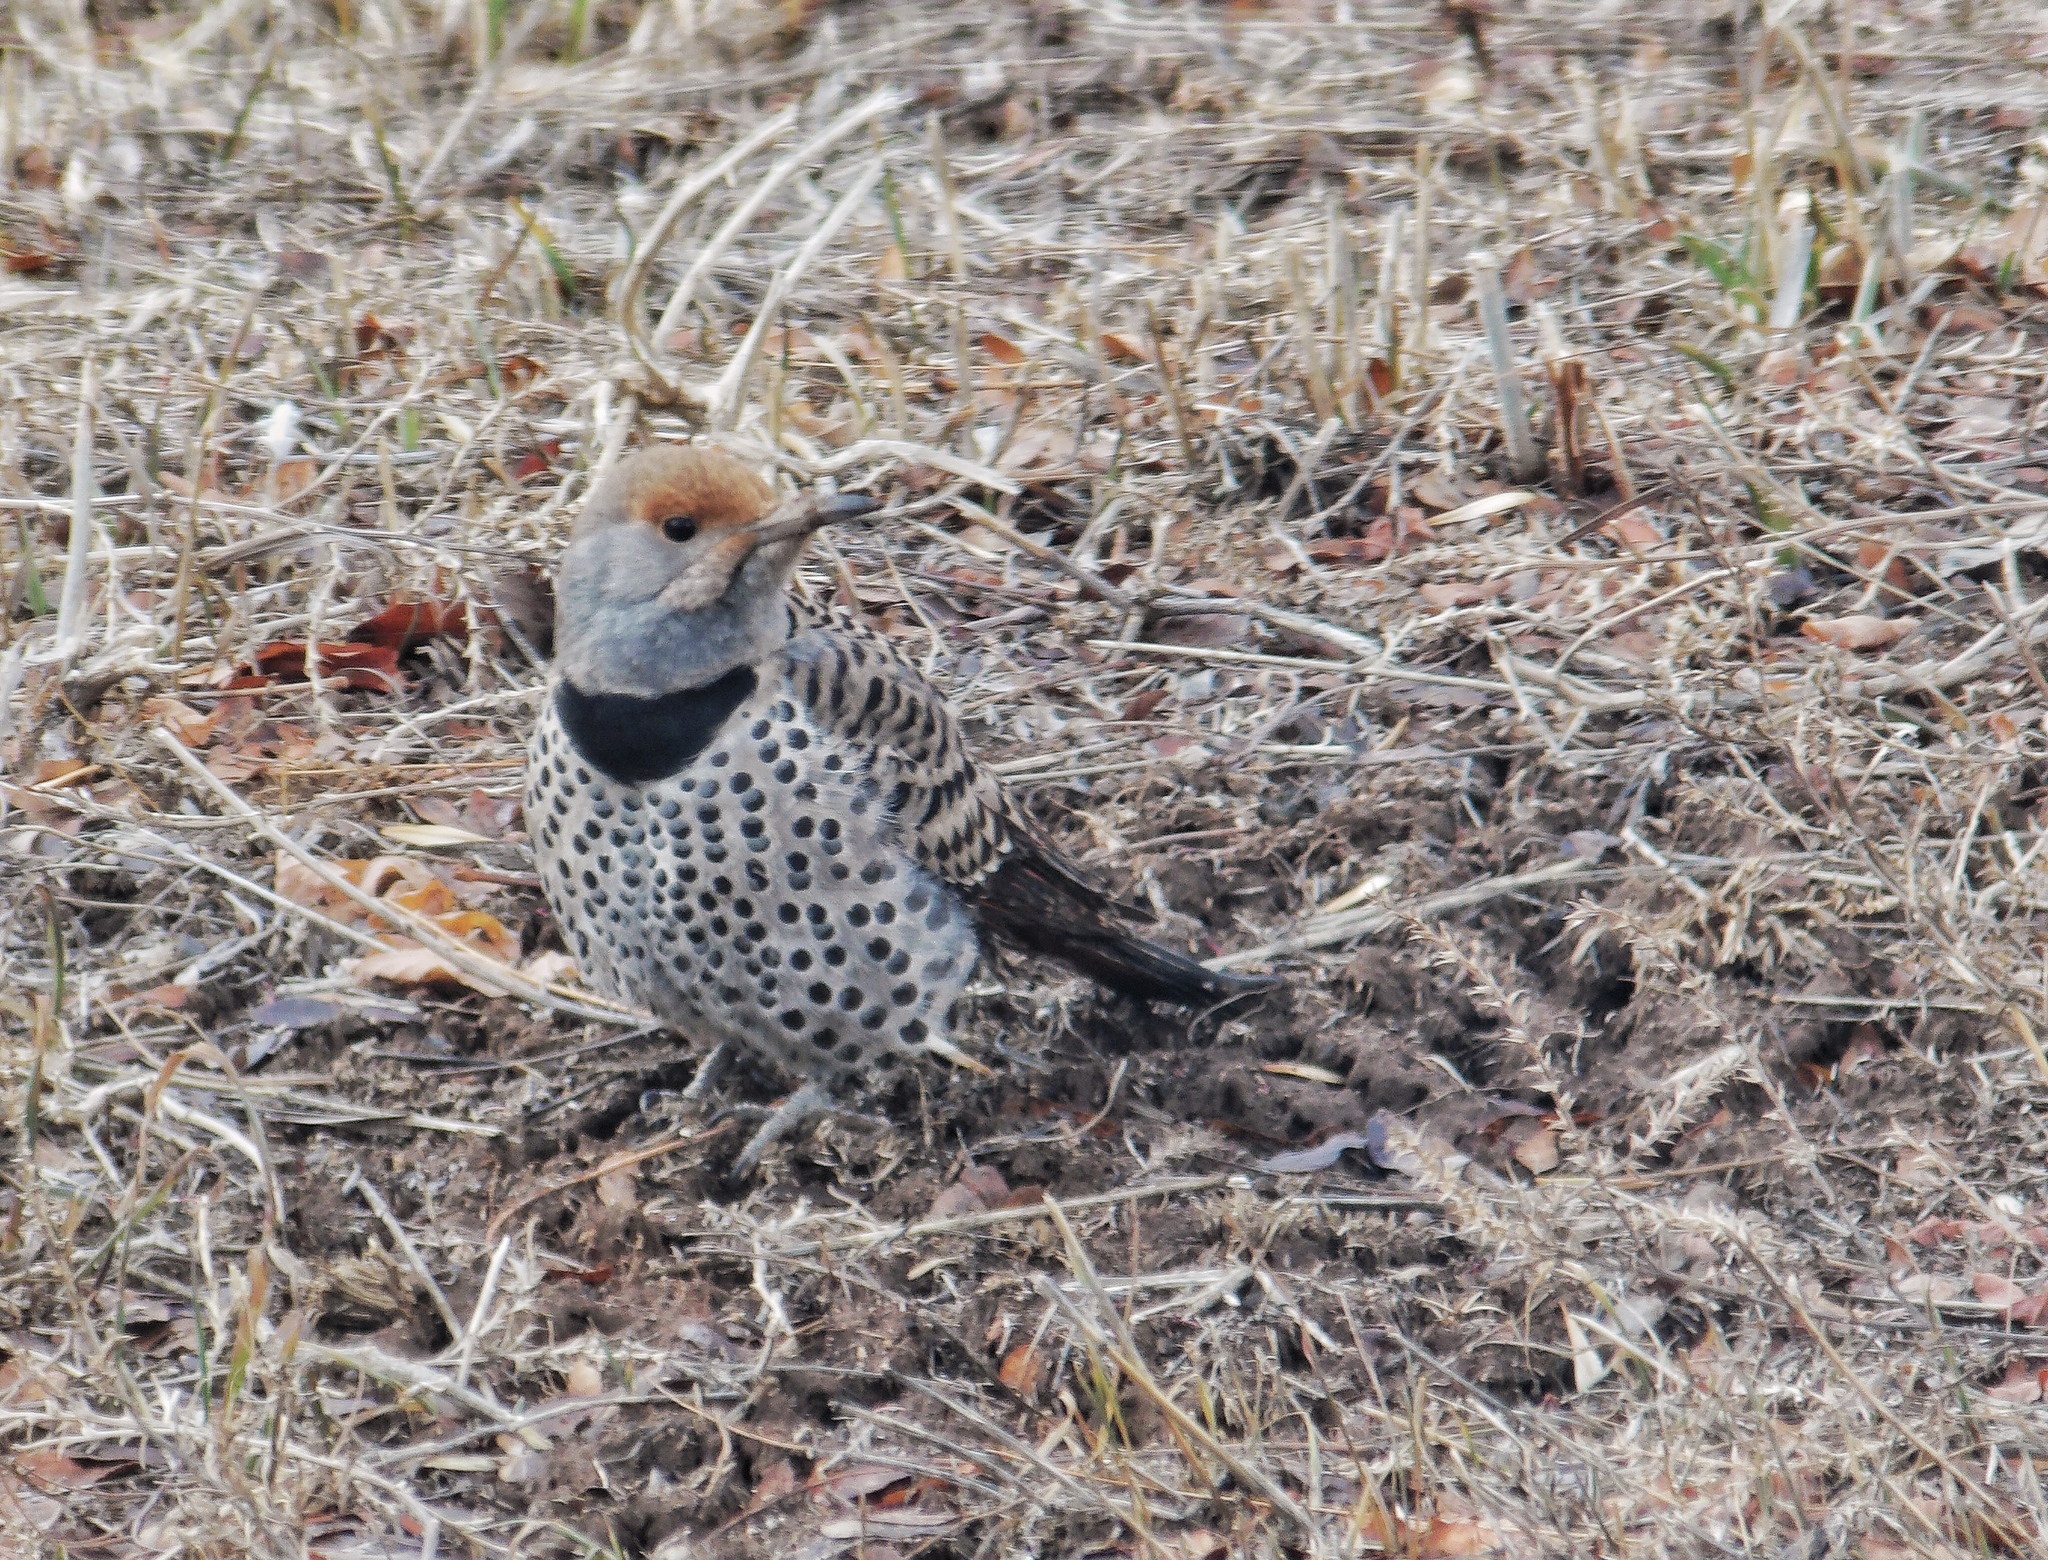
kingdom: Animalia
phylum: Chordata
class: Aves
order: Piciformes
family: Picidae
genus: Colaptes
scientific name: Colaptes auratus
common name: Northern flicker
